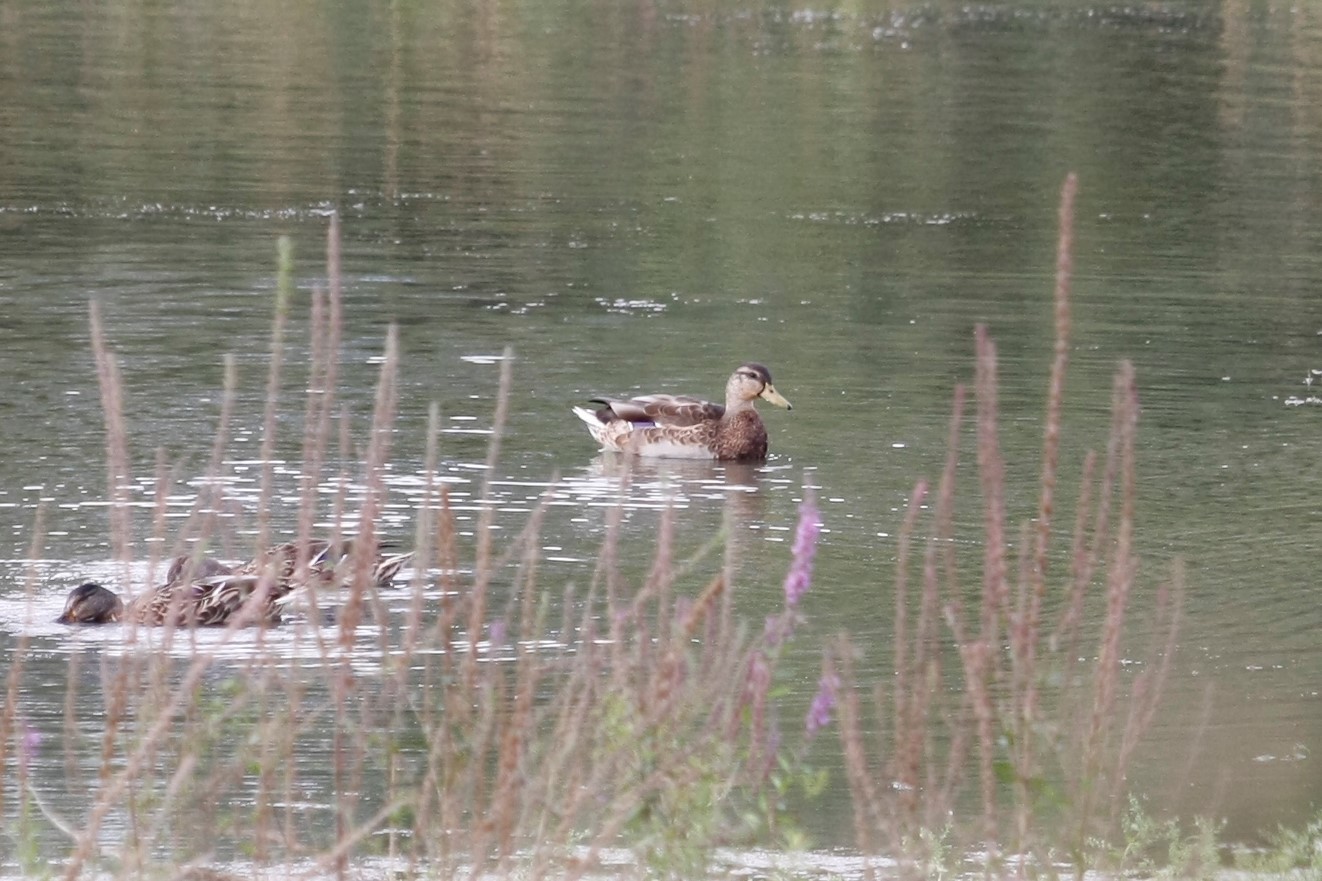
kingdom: Animalia
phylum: Chordata
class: Aves
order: Anseriformes
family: Anatidae
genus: Anas
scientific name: Anas platyrhynchos
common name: Mallard
